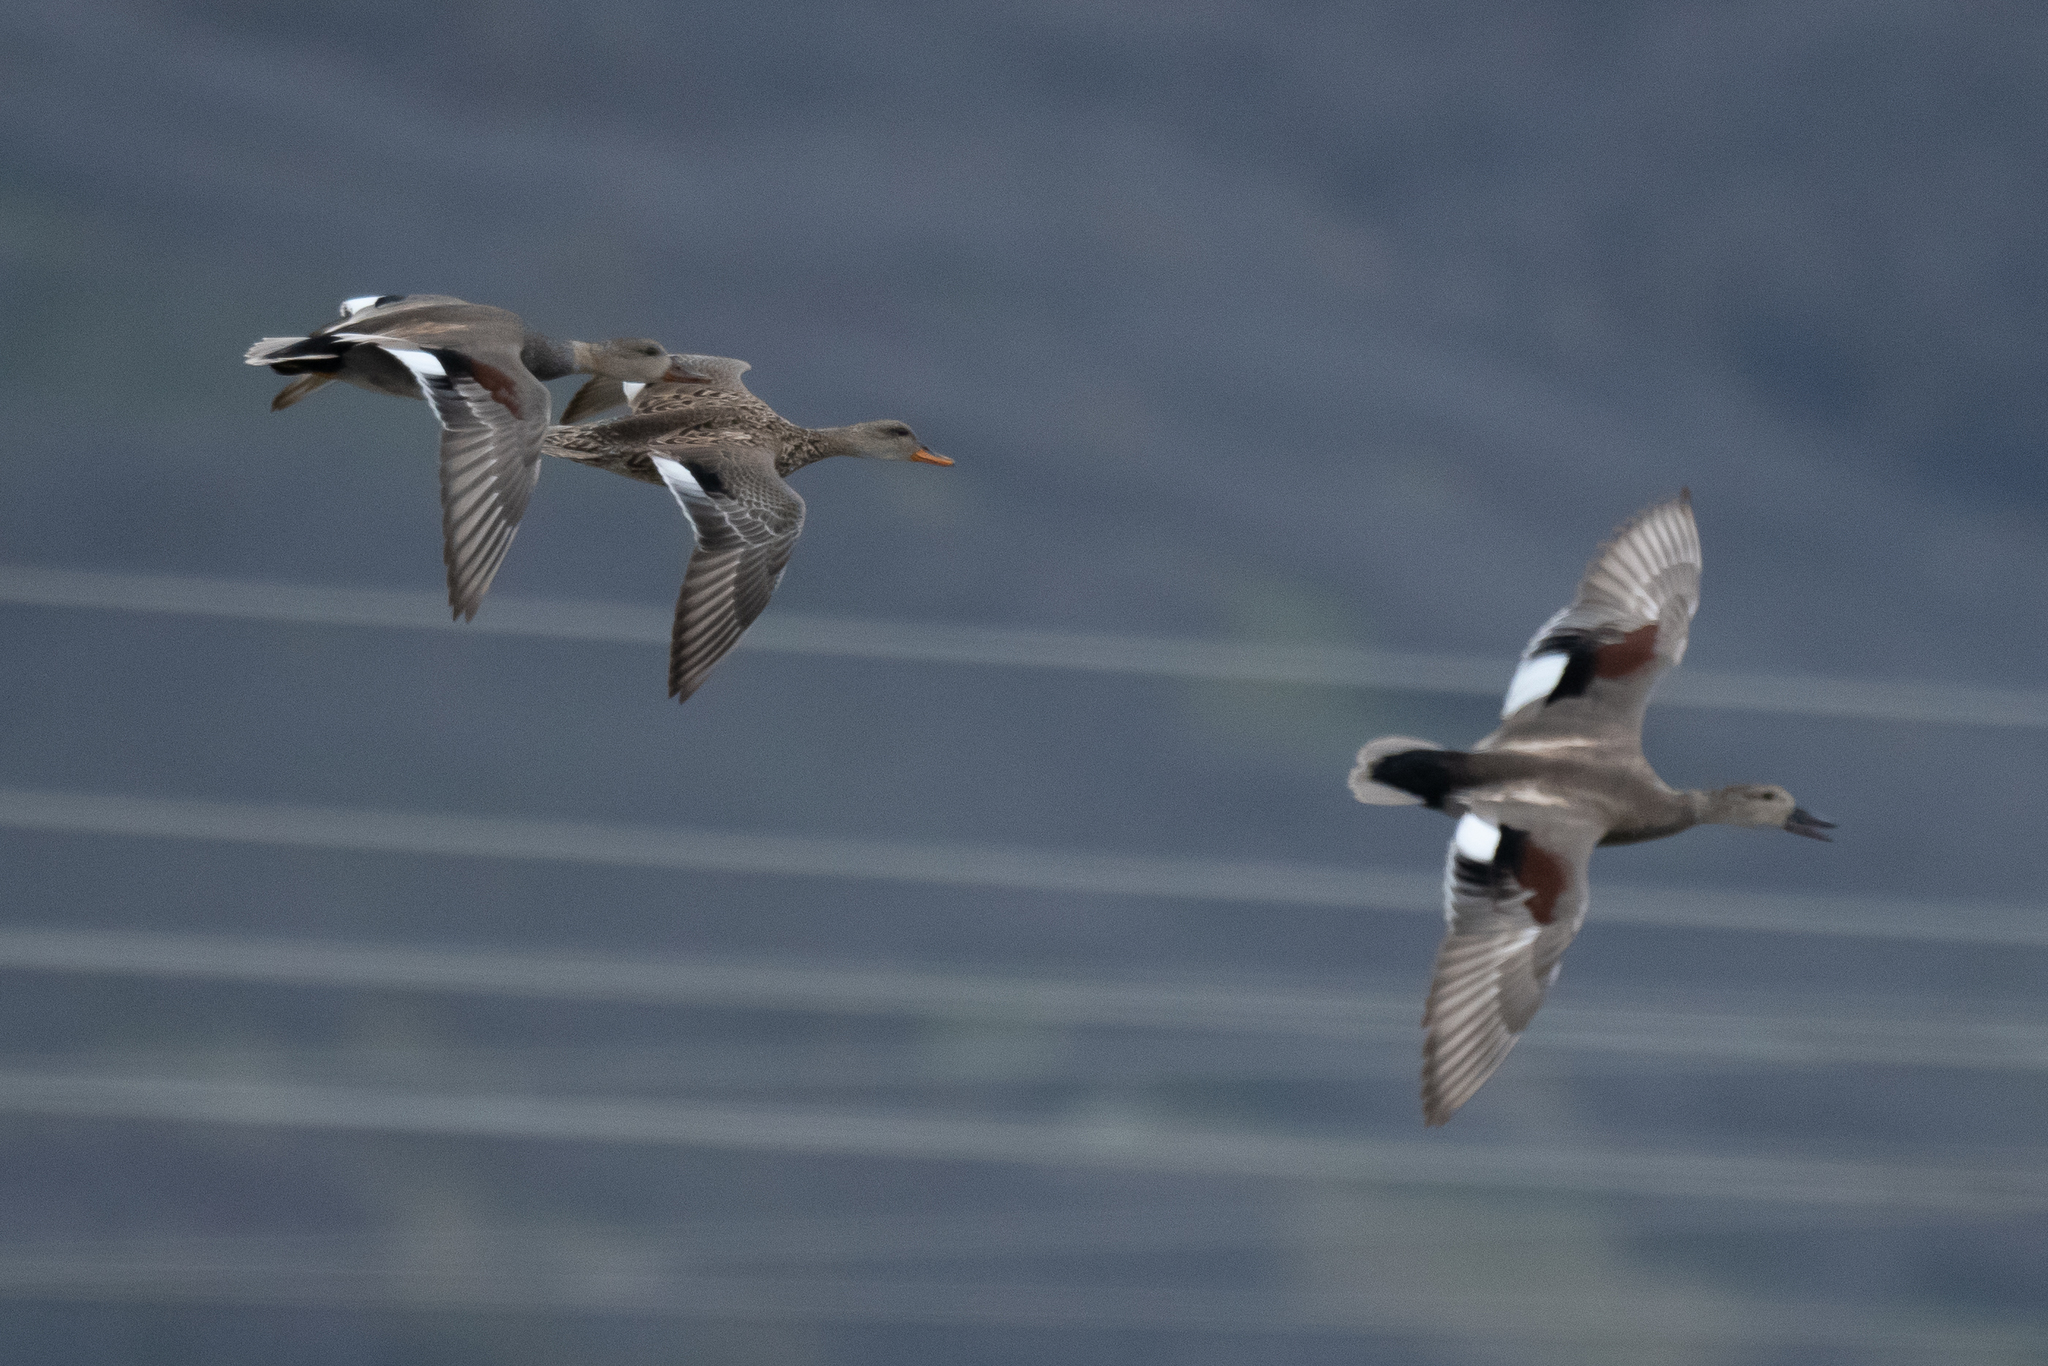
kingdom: Animalia
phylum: Chordata
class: Aves
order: Anseriformes
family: Anatidae
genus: Mareca
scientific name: Mareca strepera
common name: Gadwall
